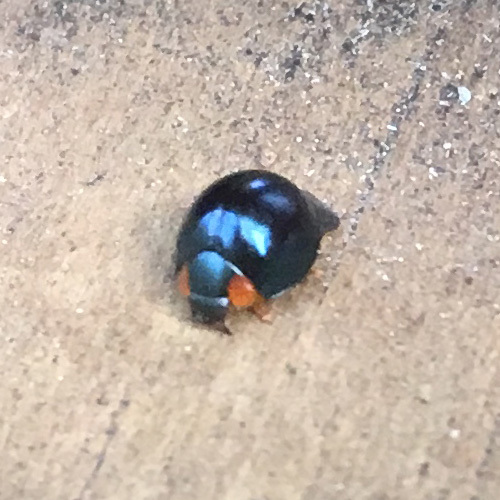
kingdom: Animalia
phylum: Arthropoda
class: Insecta
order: Coleoptera
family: Coccinellidae
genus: Curinus
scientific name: Curinus coeruleus
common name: Ladybird beetle
